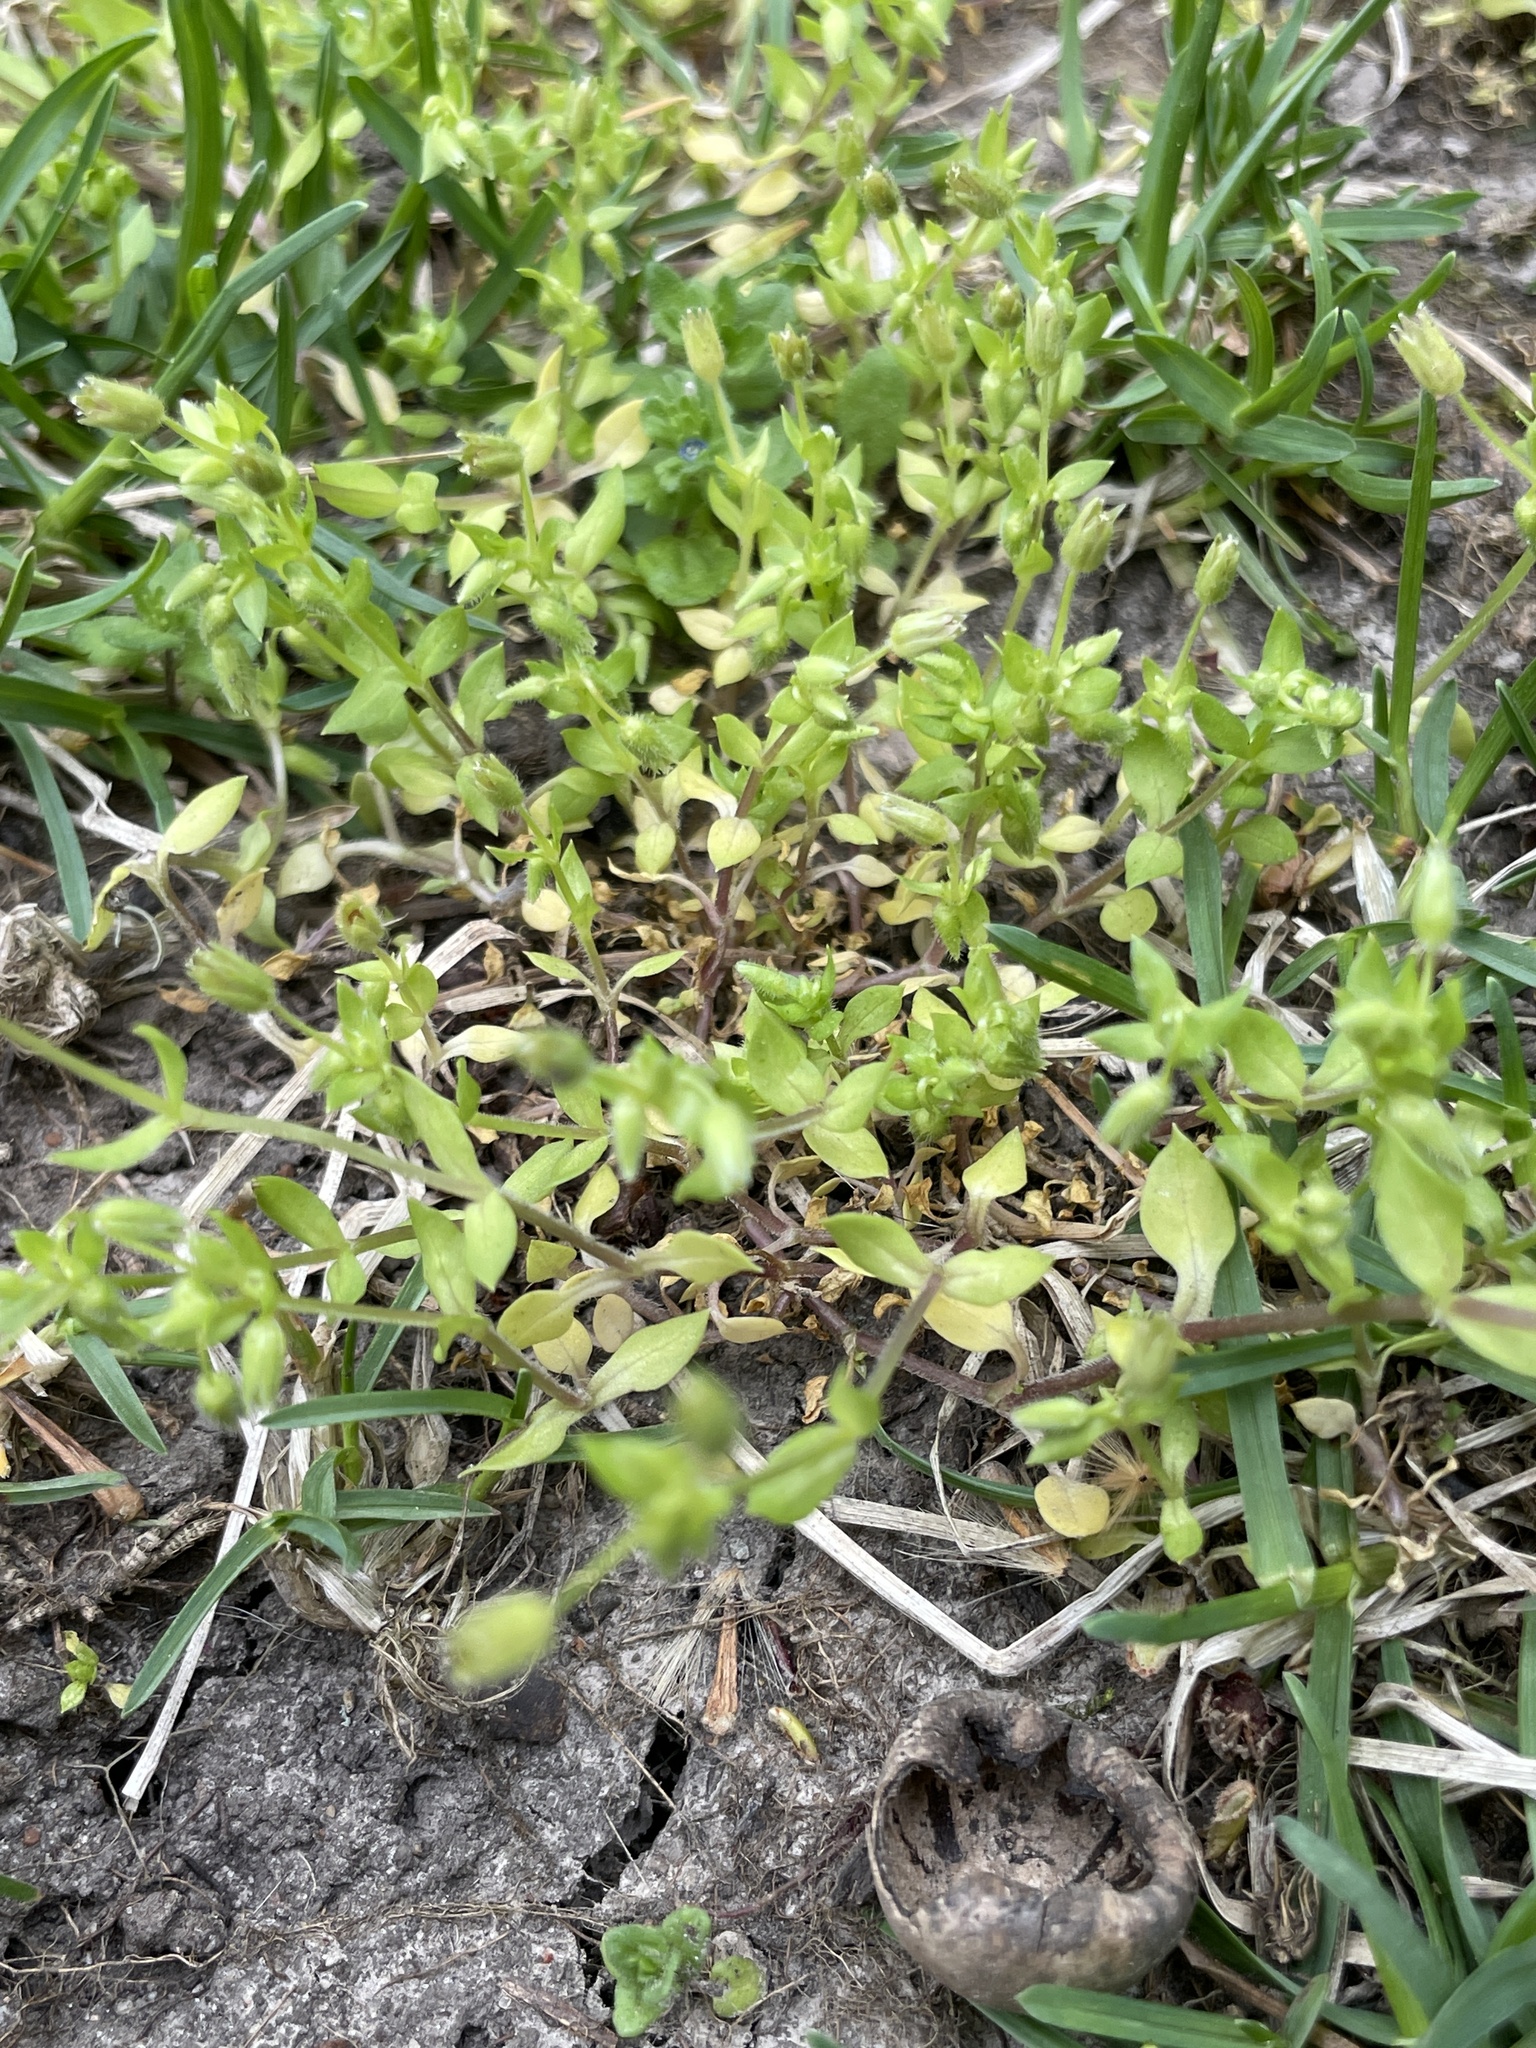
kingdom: Plantae
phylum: Tracheophyta
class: Magnoliopsida
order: Caryophyllales
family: Caryophyllaceae
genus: Stellaria
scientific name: Stellaria media
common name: Common chickweed
